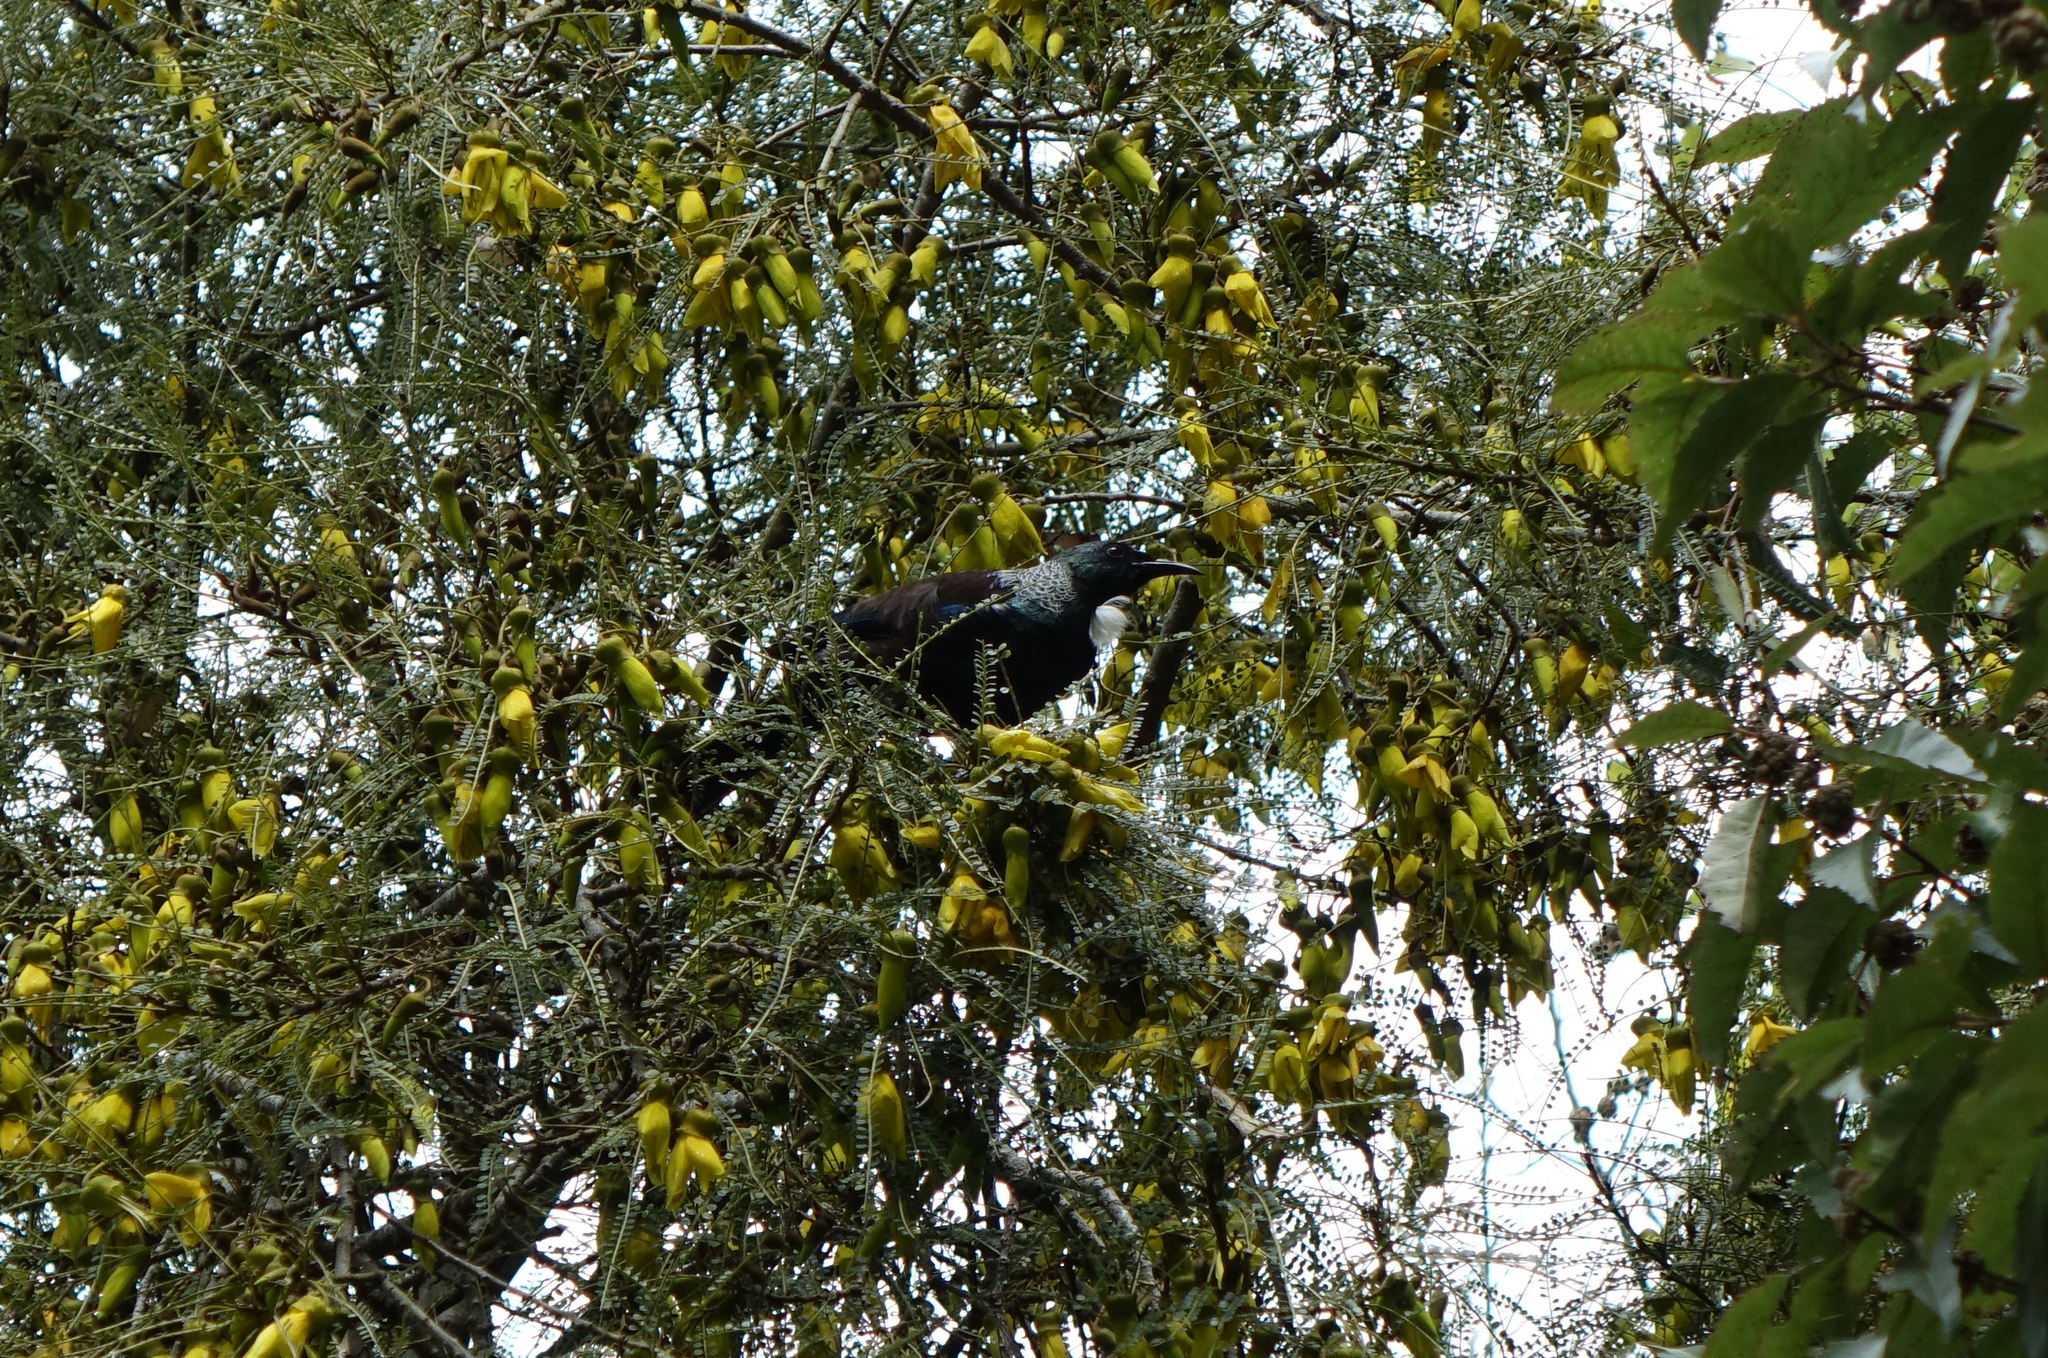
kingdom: Animalia
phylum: Chordata
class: Aves
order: Passeriformes
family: Meliphagidae
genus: Prosthemadera
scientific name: Prosthemadera novaeseelandiae
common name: Tui
